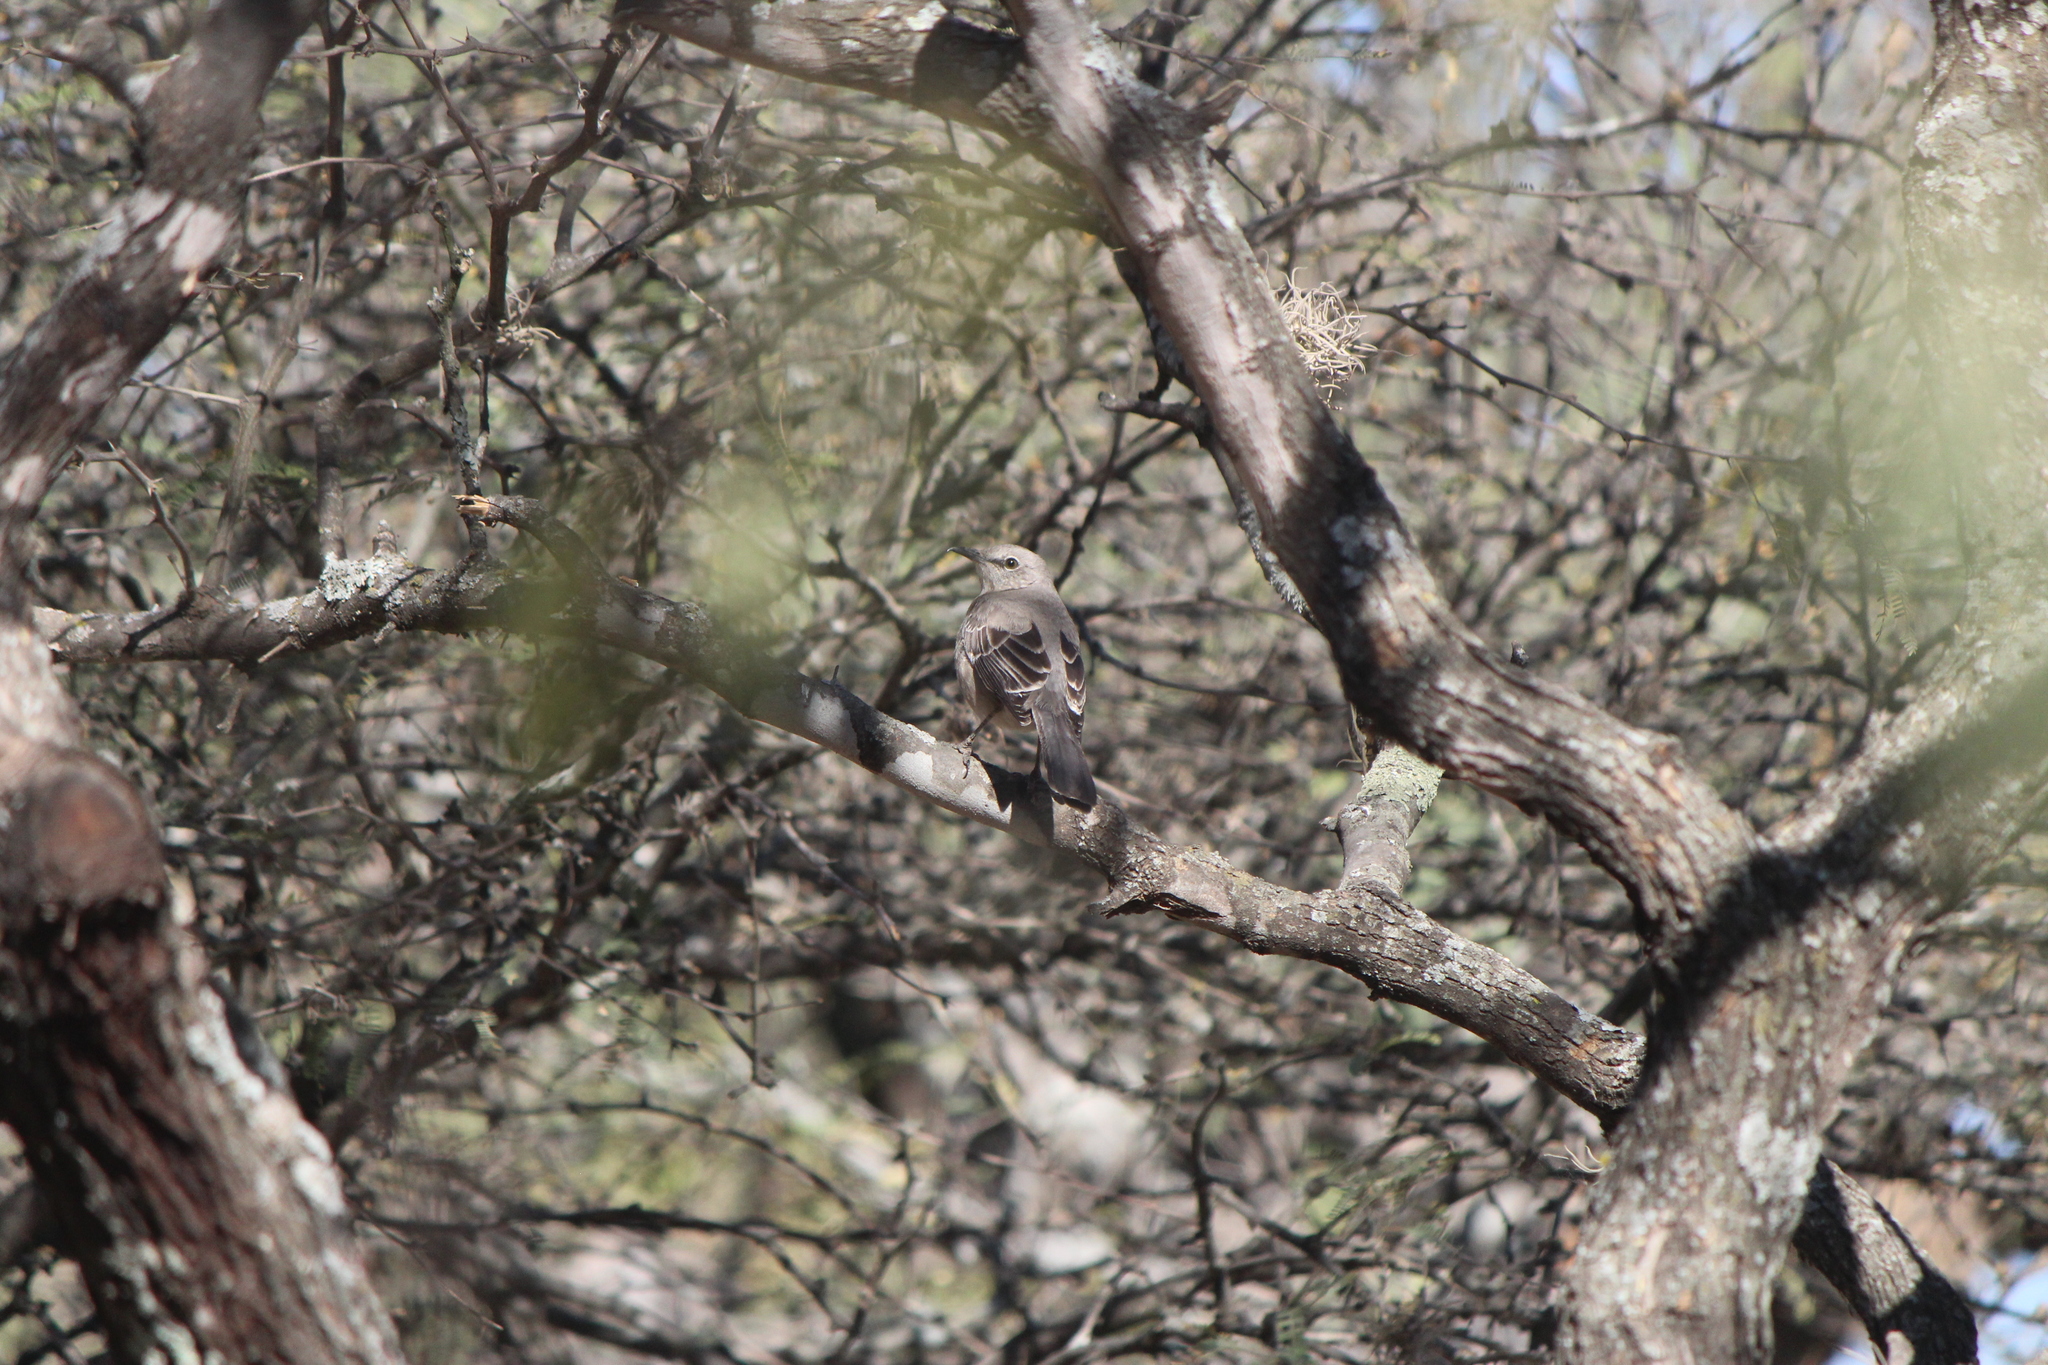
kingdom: Animalia
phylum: Chordata
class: Aves
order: Passeriformes
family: Mimidae
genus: Mimus
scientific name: Mimus polyglottos
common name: Northern mockingbird
